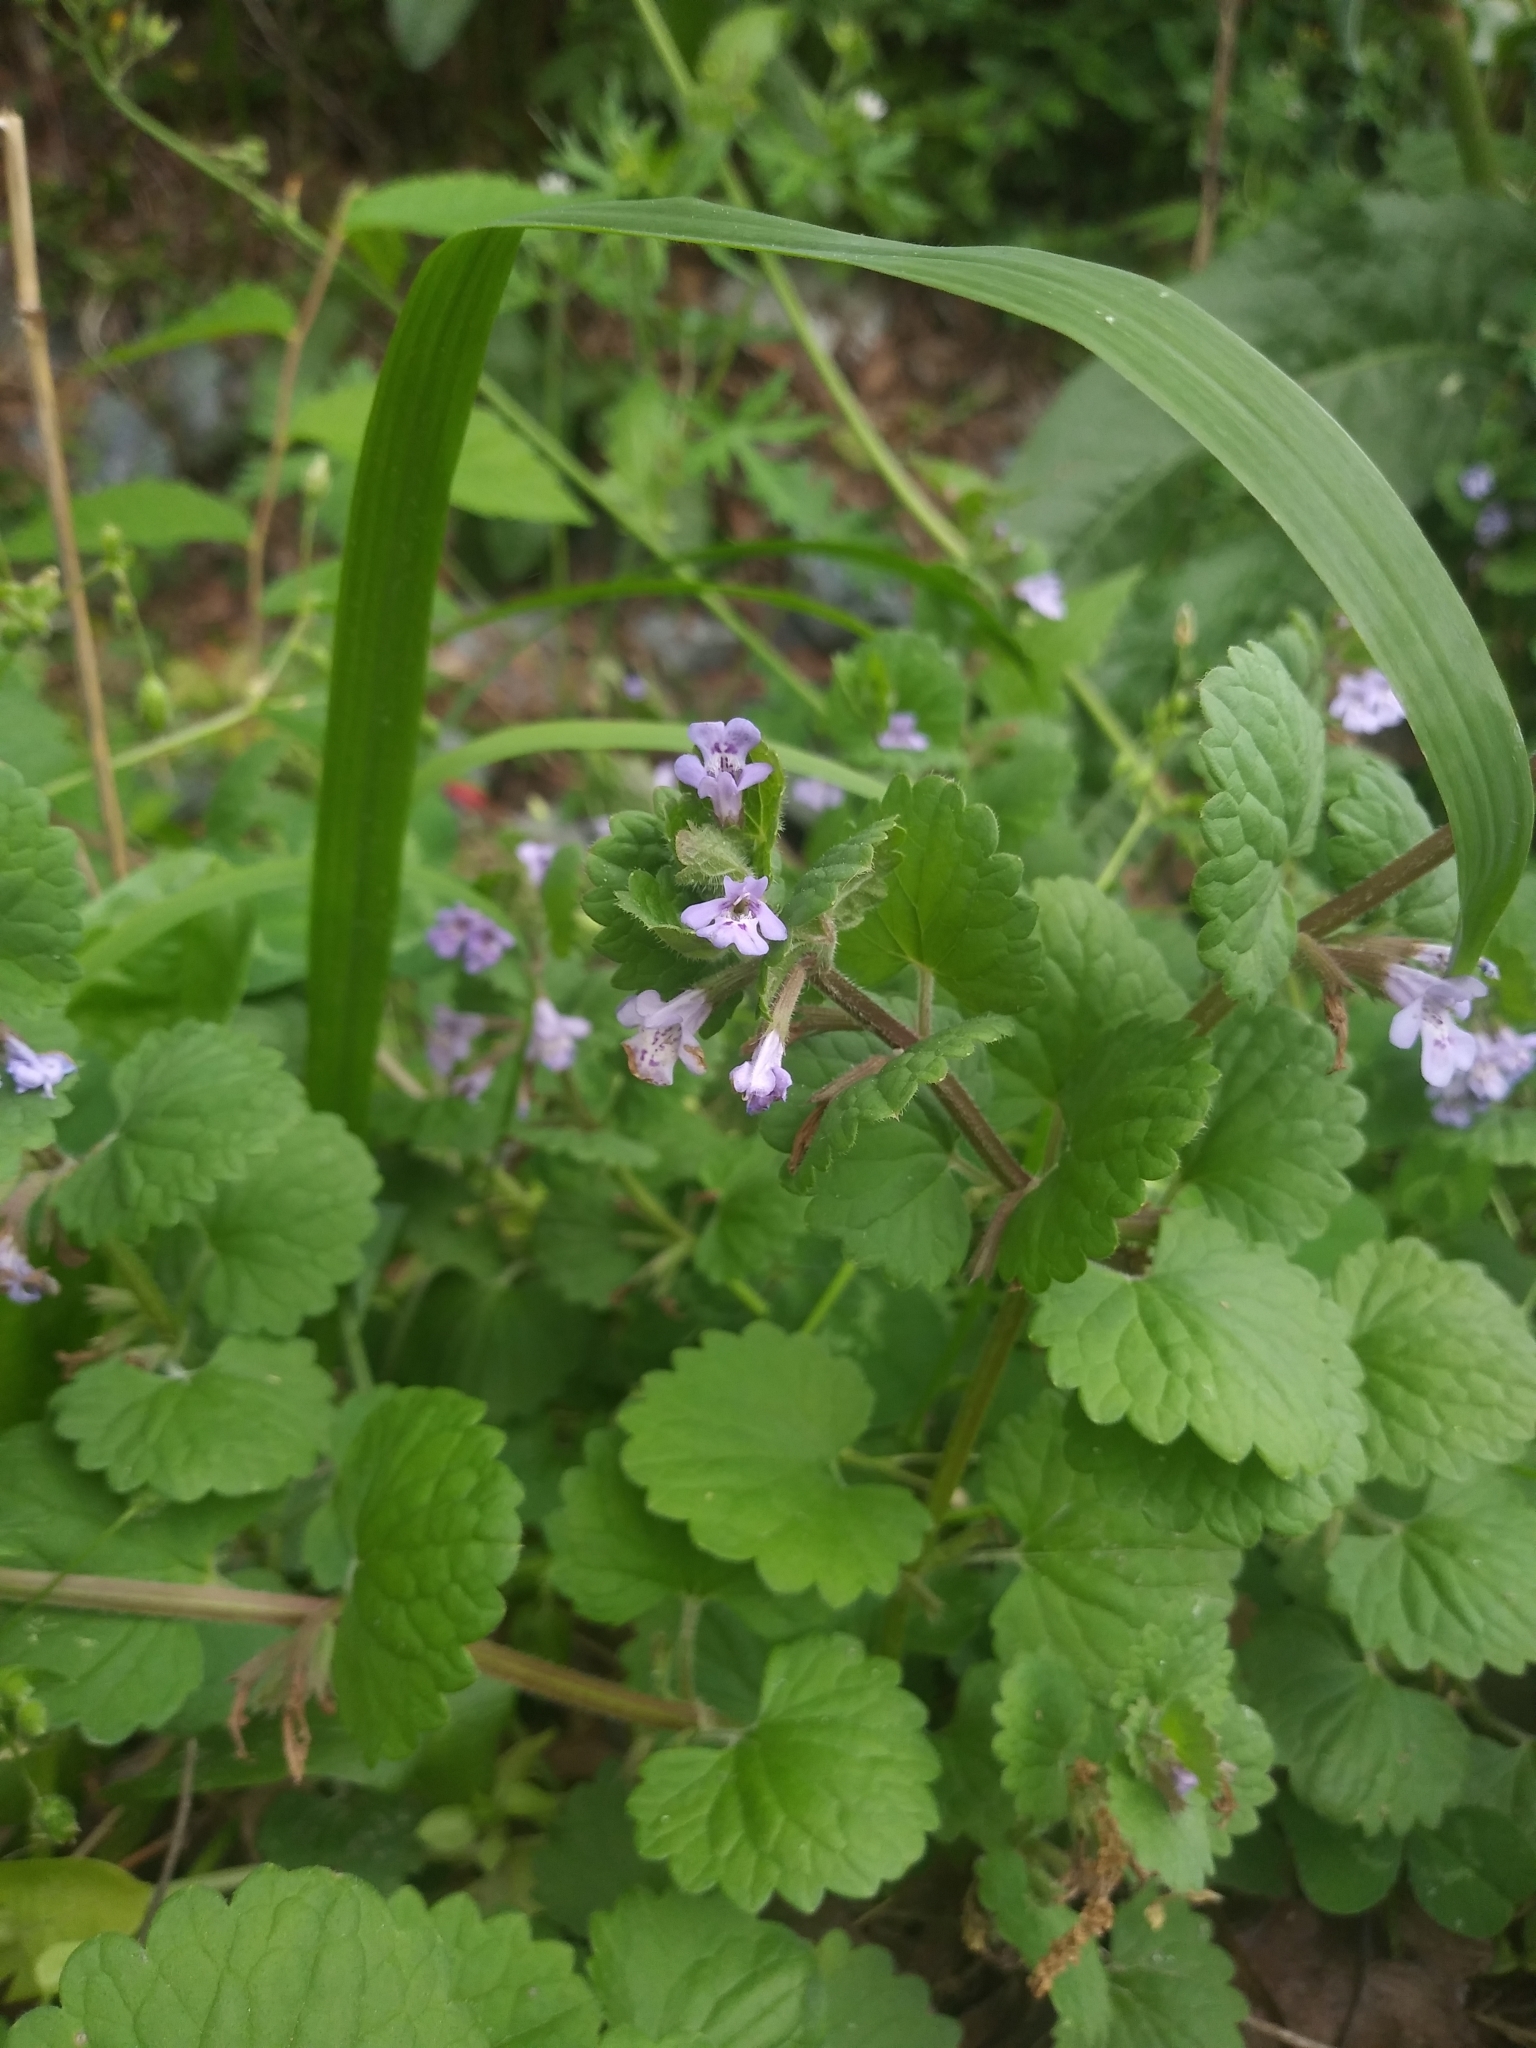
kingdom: Plantae
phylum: Tracheophyta
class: Magnoliopsida
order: Lamiales
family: Lamiaceae
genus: Glechoma
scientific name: Glechoma hederacea
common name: Ground ivy
